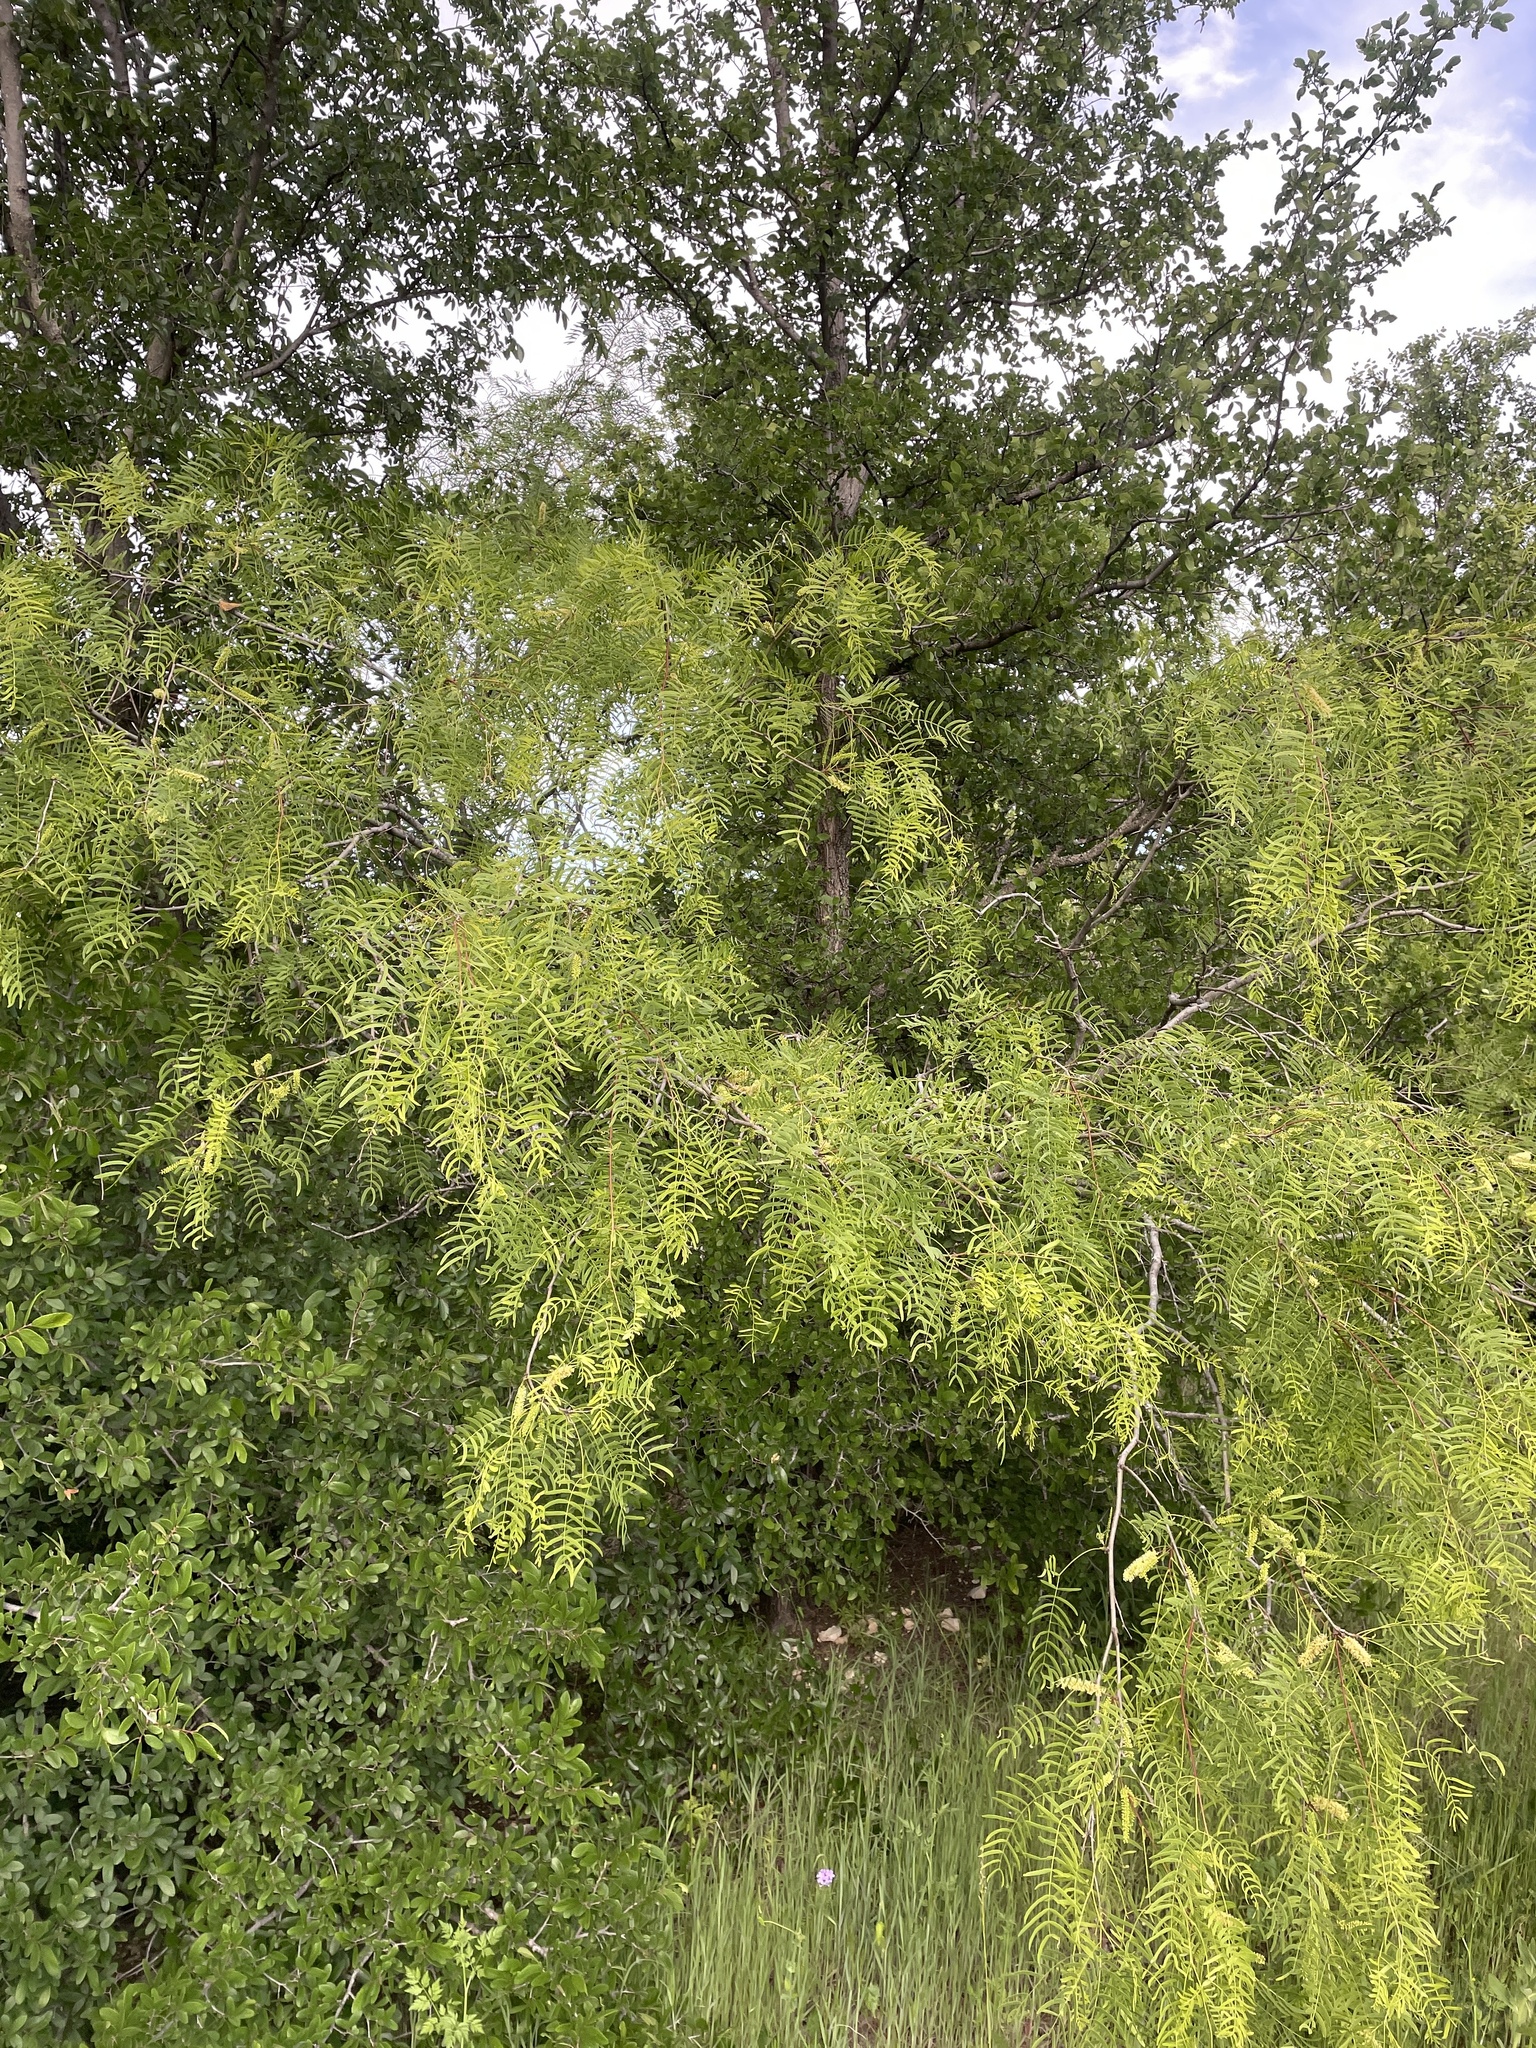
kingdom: Plantae
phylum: Tracheophyta
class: Magnoliopsida
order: Fabales
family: Fabaceae
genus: Prosopis
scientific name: Prosopis glandulosa
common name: Honey mesquite
